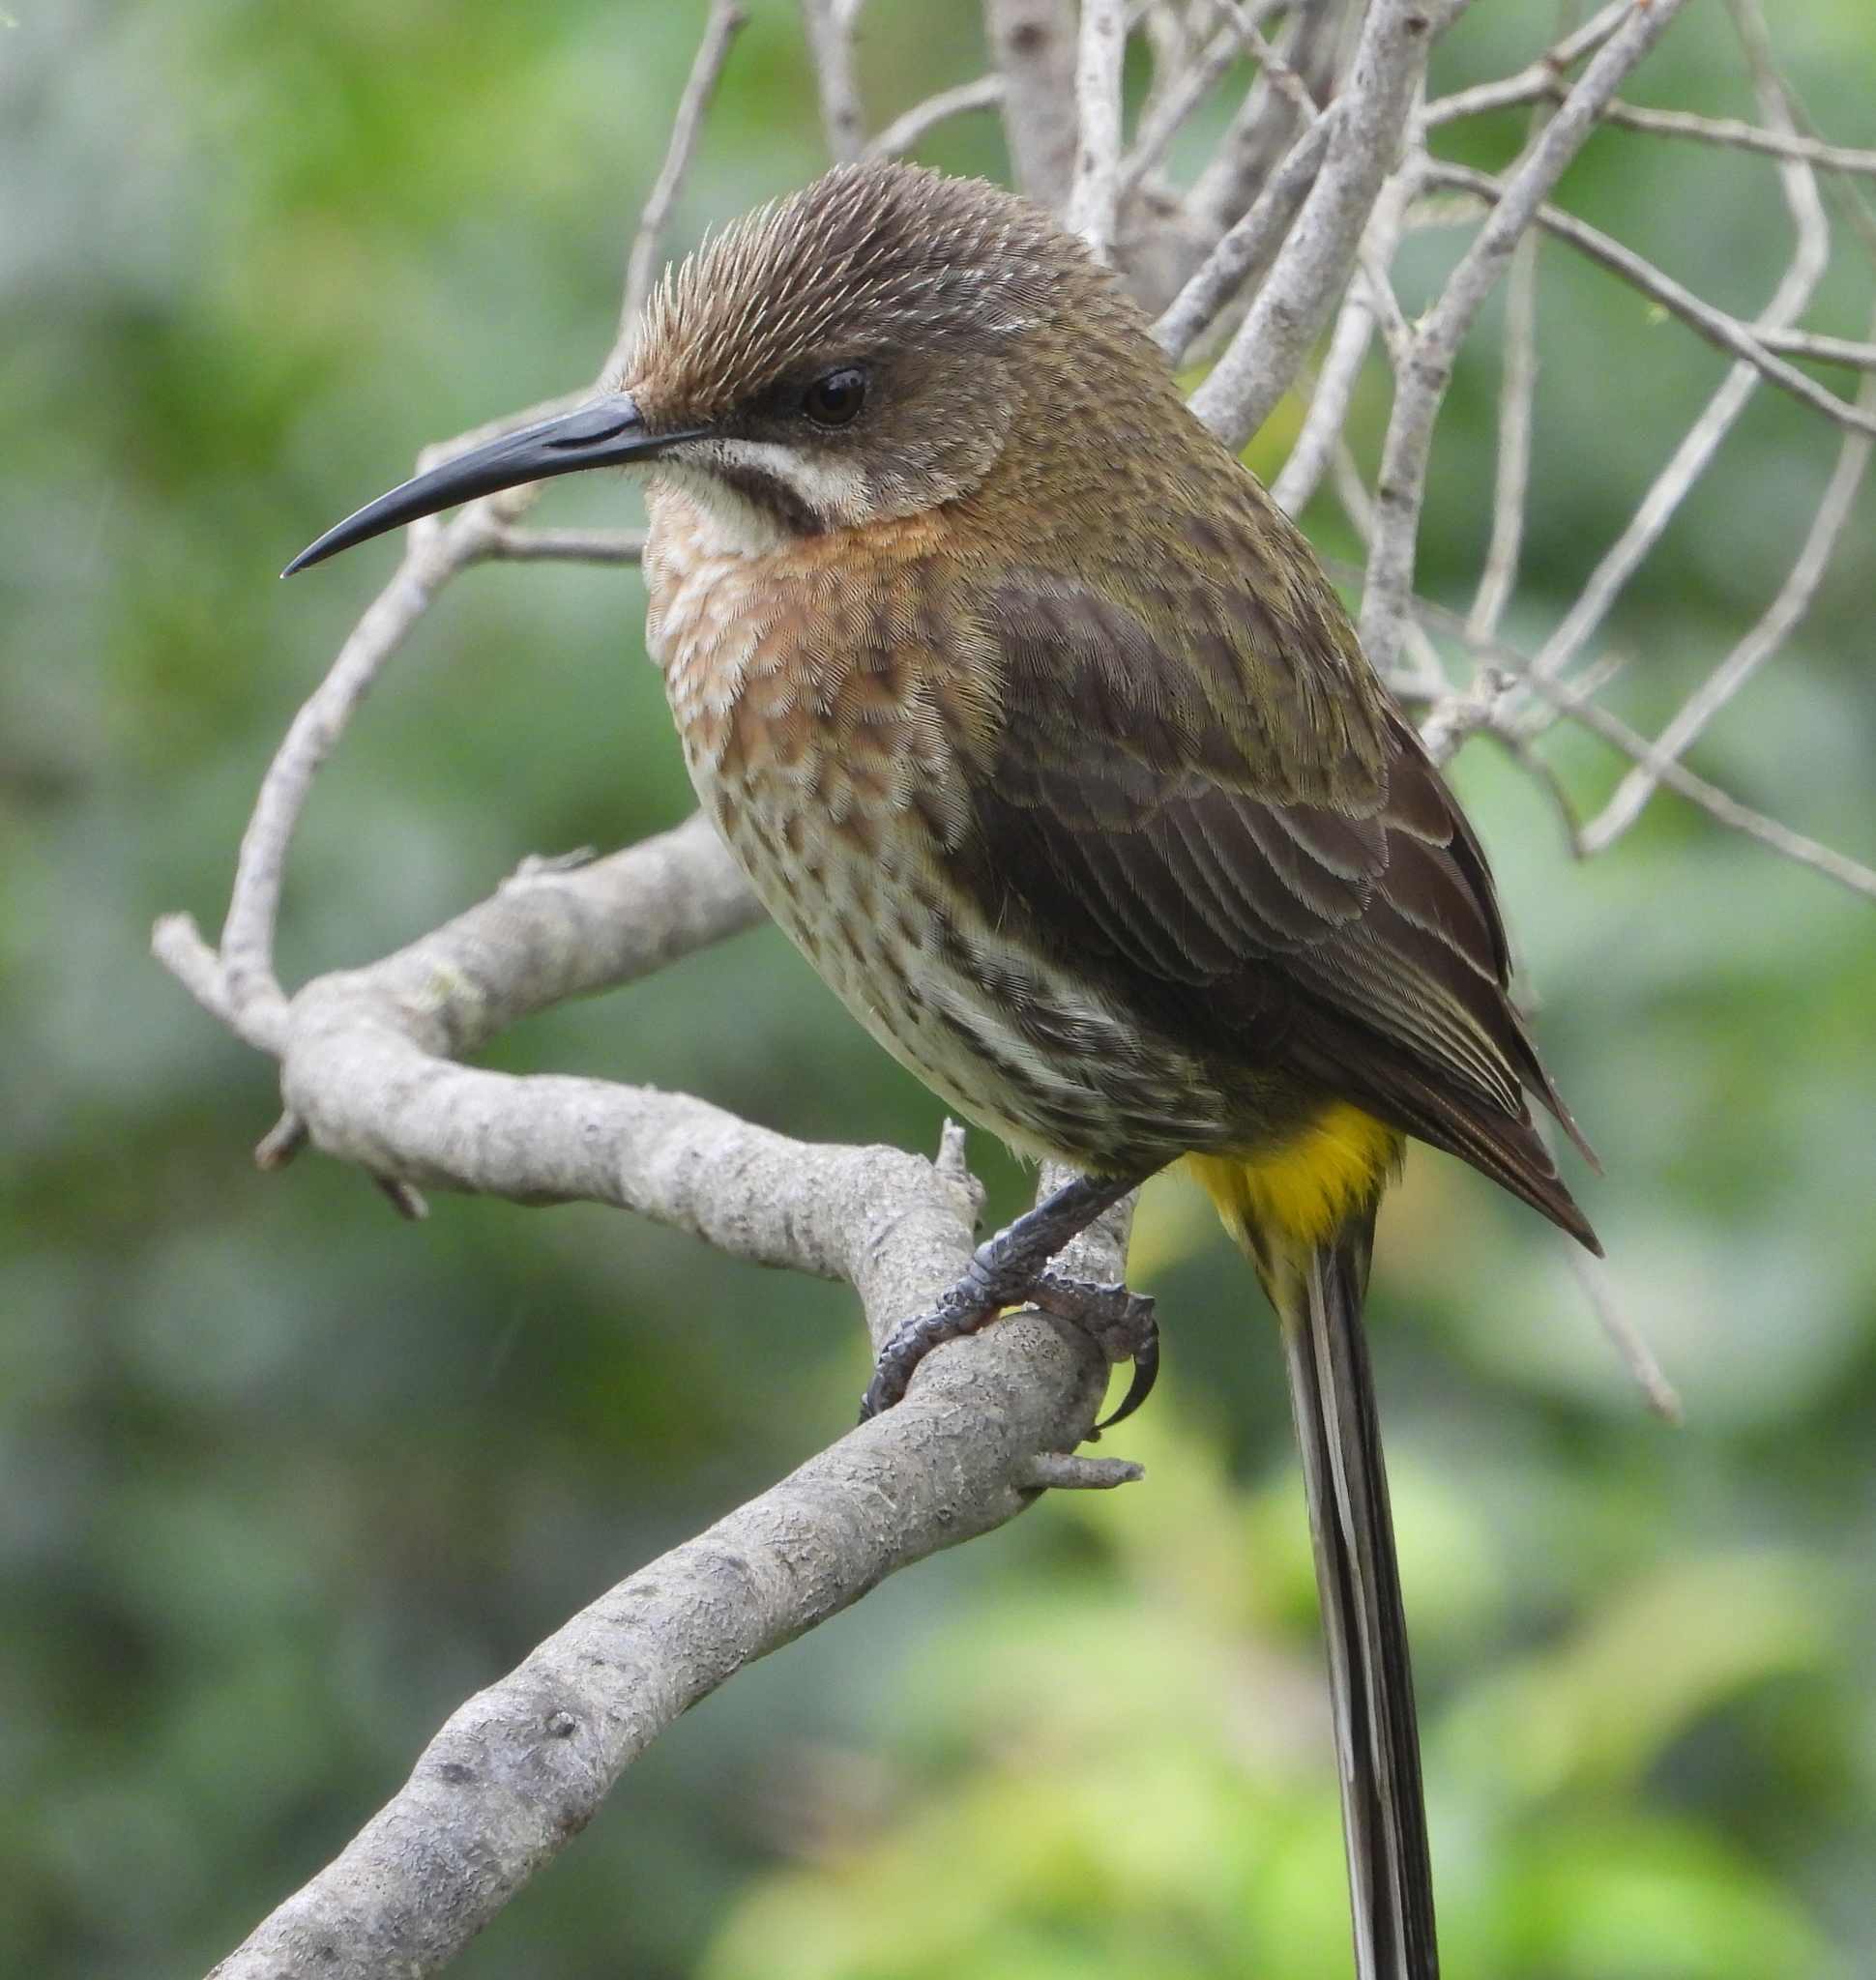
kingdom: Animalia
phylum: Chordata
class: Aves
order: Passeriformes
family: Promeropidae
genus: Promerops
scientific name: Promerops cafer
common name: Cape sugarbird
